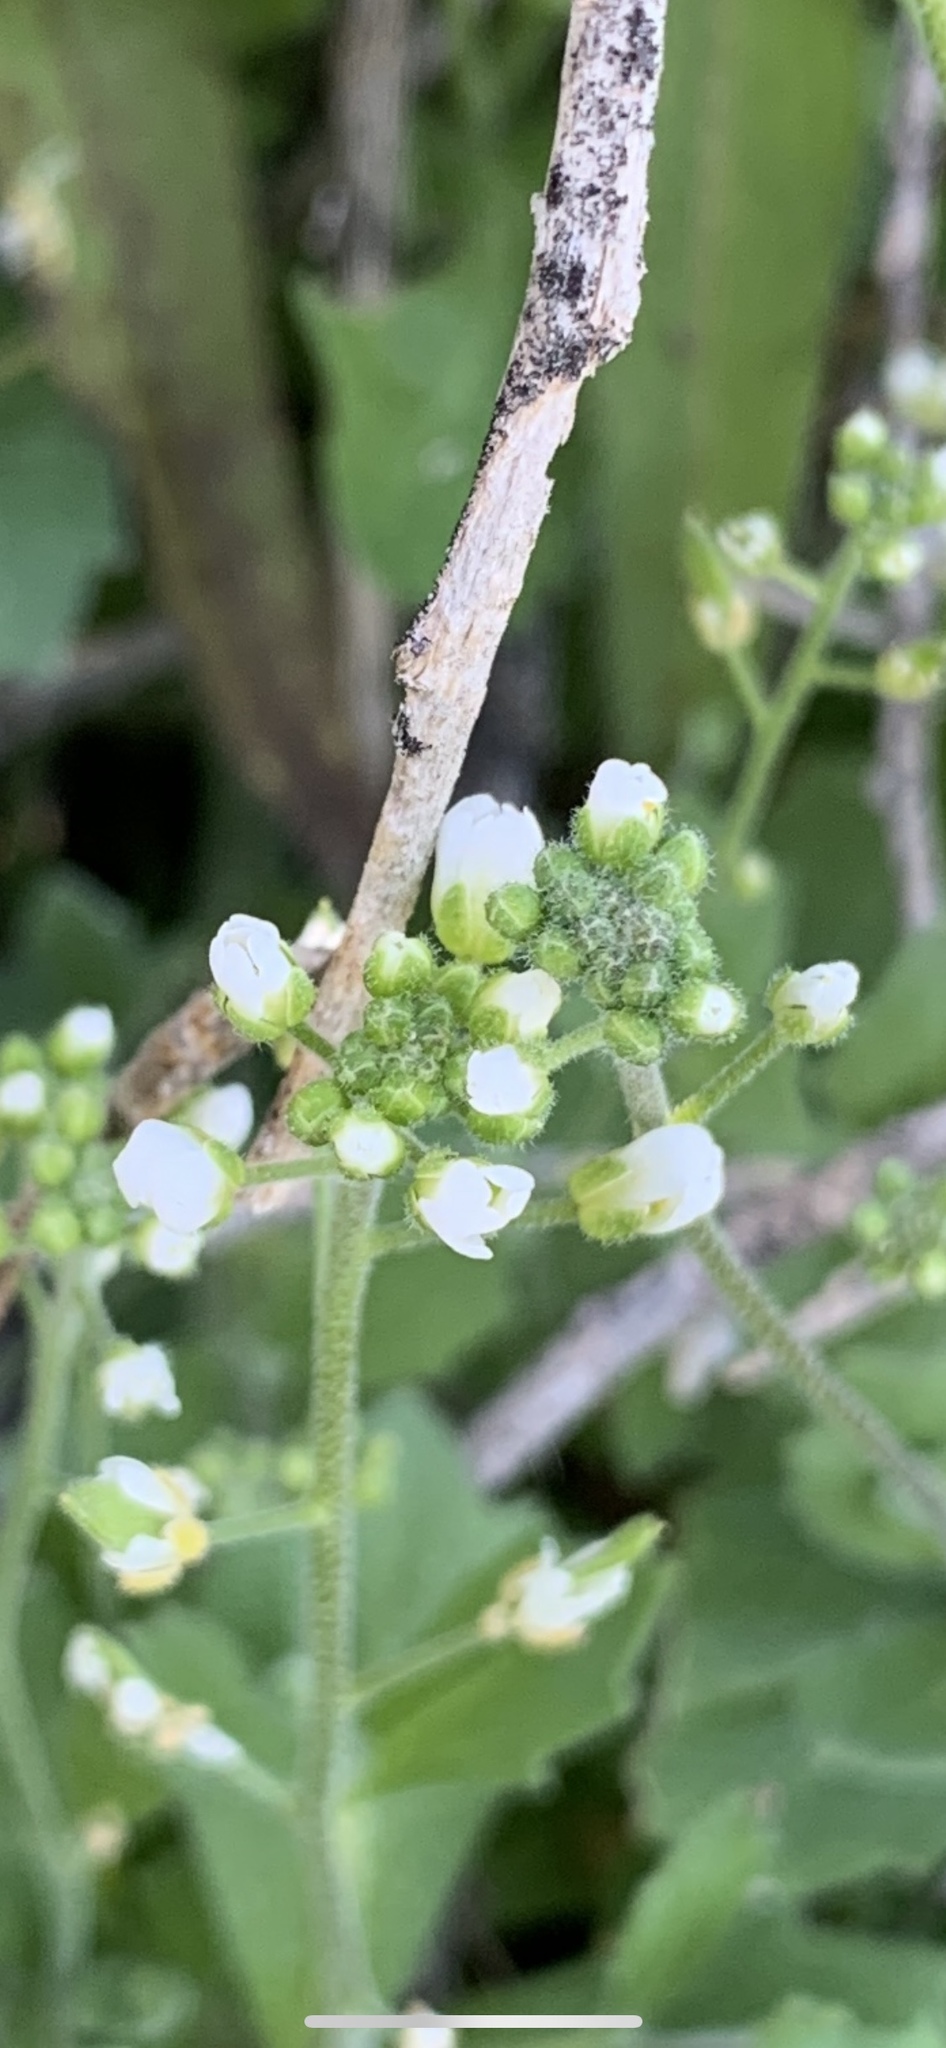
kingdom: Plantae
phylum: Tracheophyta
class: Magnoliopsida
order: Brassicales
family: Brassicaceae
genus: Tomostima
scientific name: Tomostima cuneifolia
